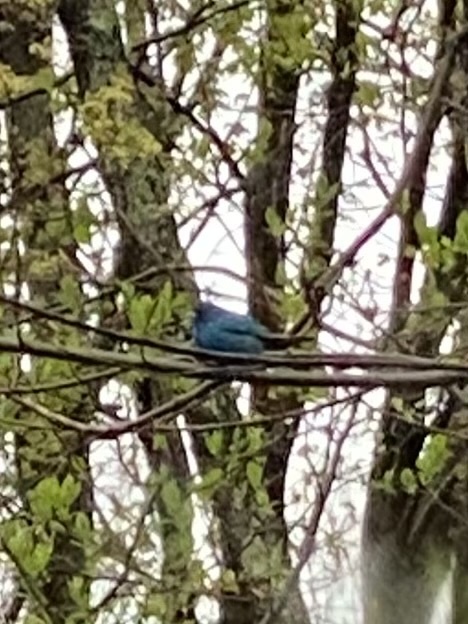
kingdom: Animalia
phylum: Chordata
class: Aves
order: Passeriformes
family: Cardinalidae
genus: Passerina
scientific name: Passerina cyanea
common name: Indigo bunting
